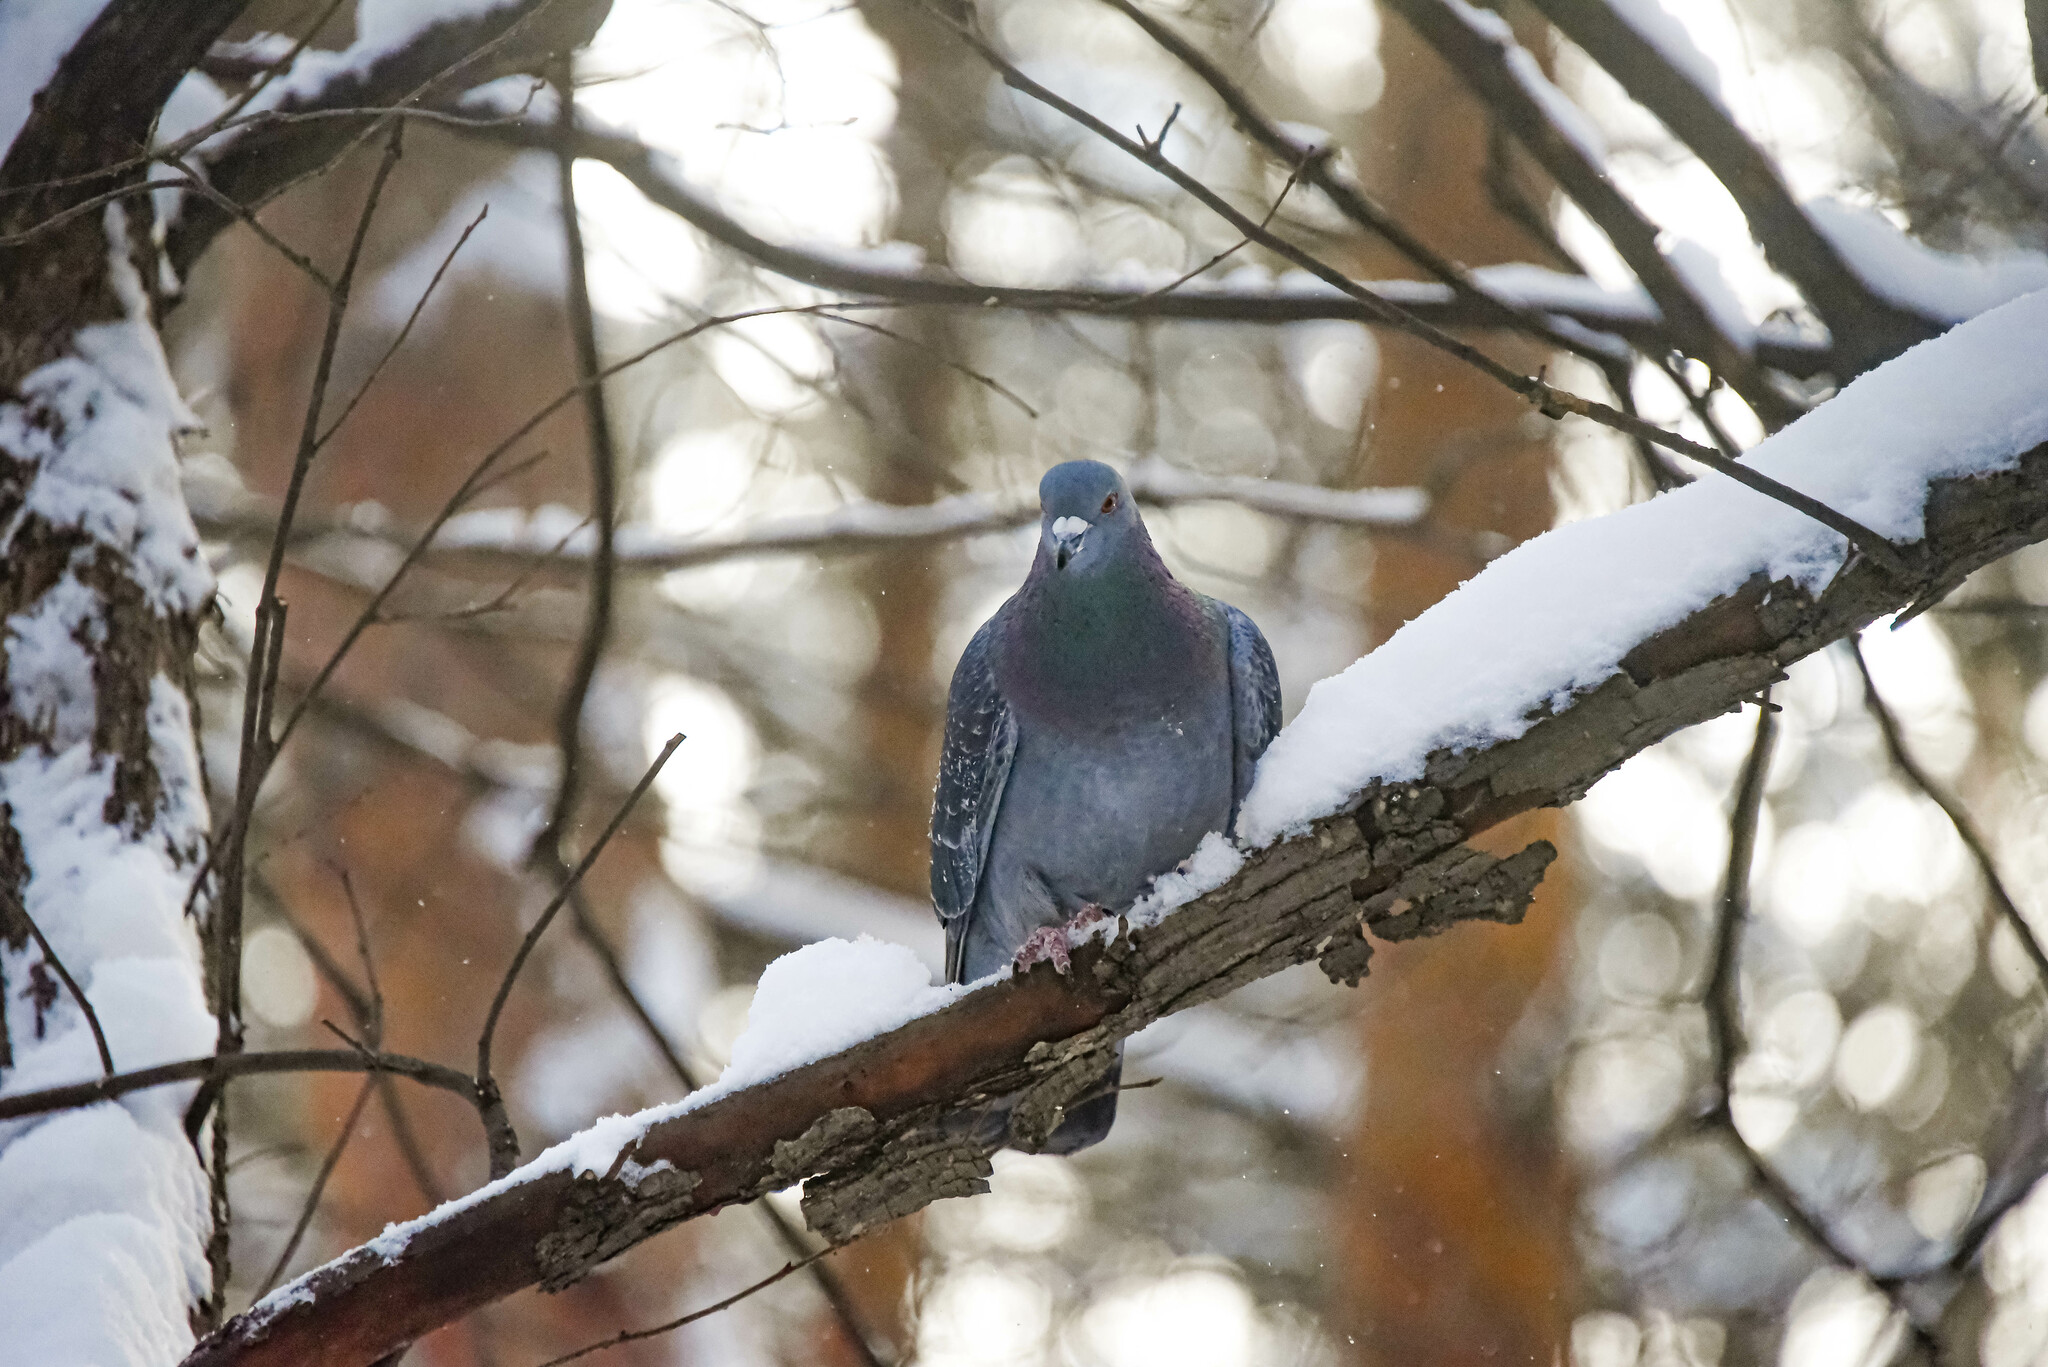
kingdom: Animalia
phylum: Chordata
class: Aves
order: Columbiformes
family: Columbidae
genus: Columba
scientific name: Columba livia
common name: Rock pigeon
